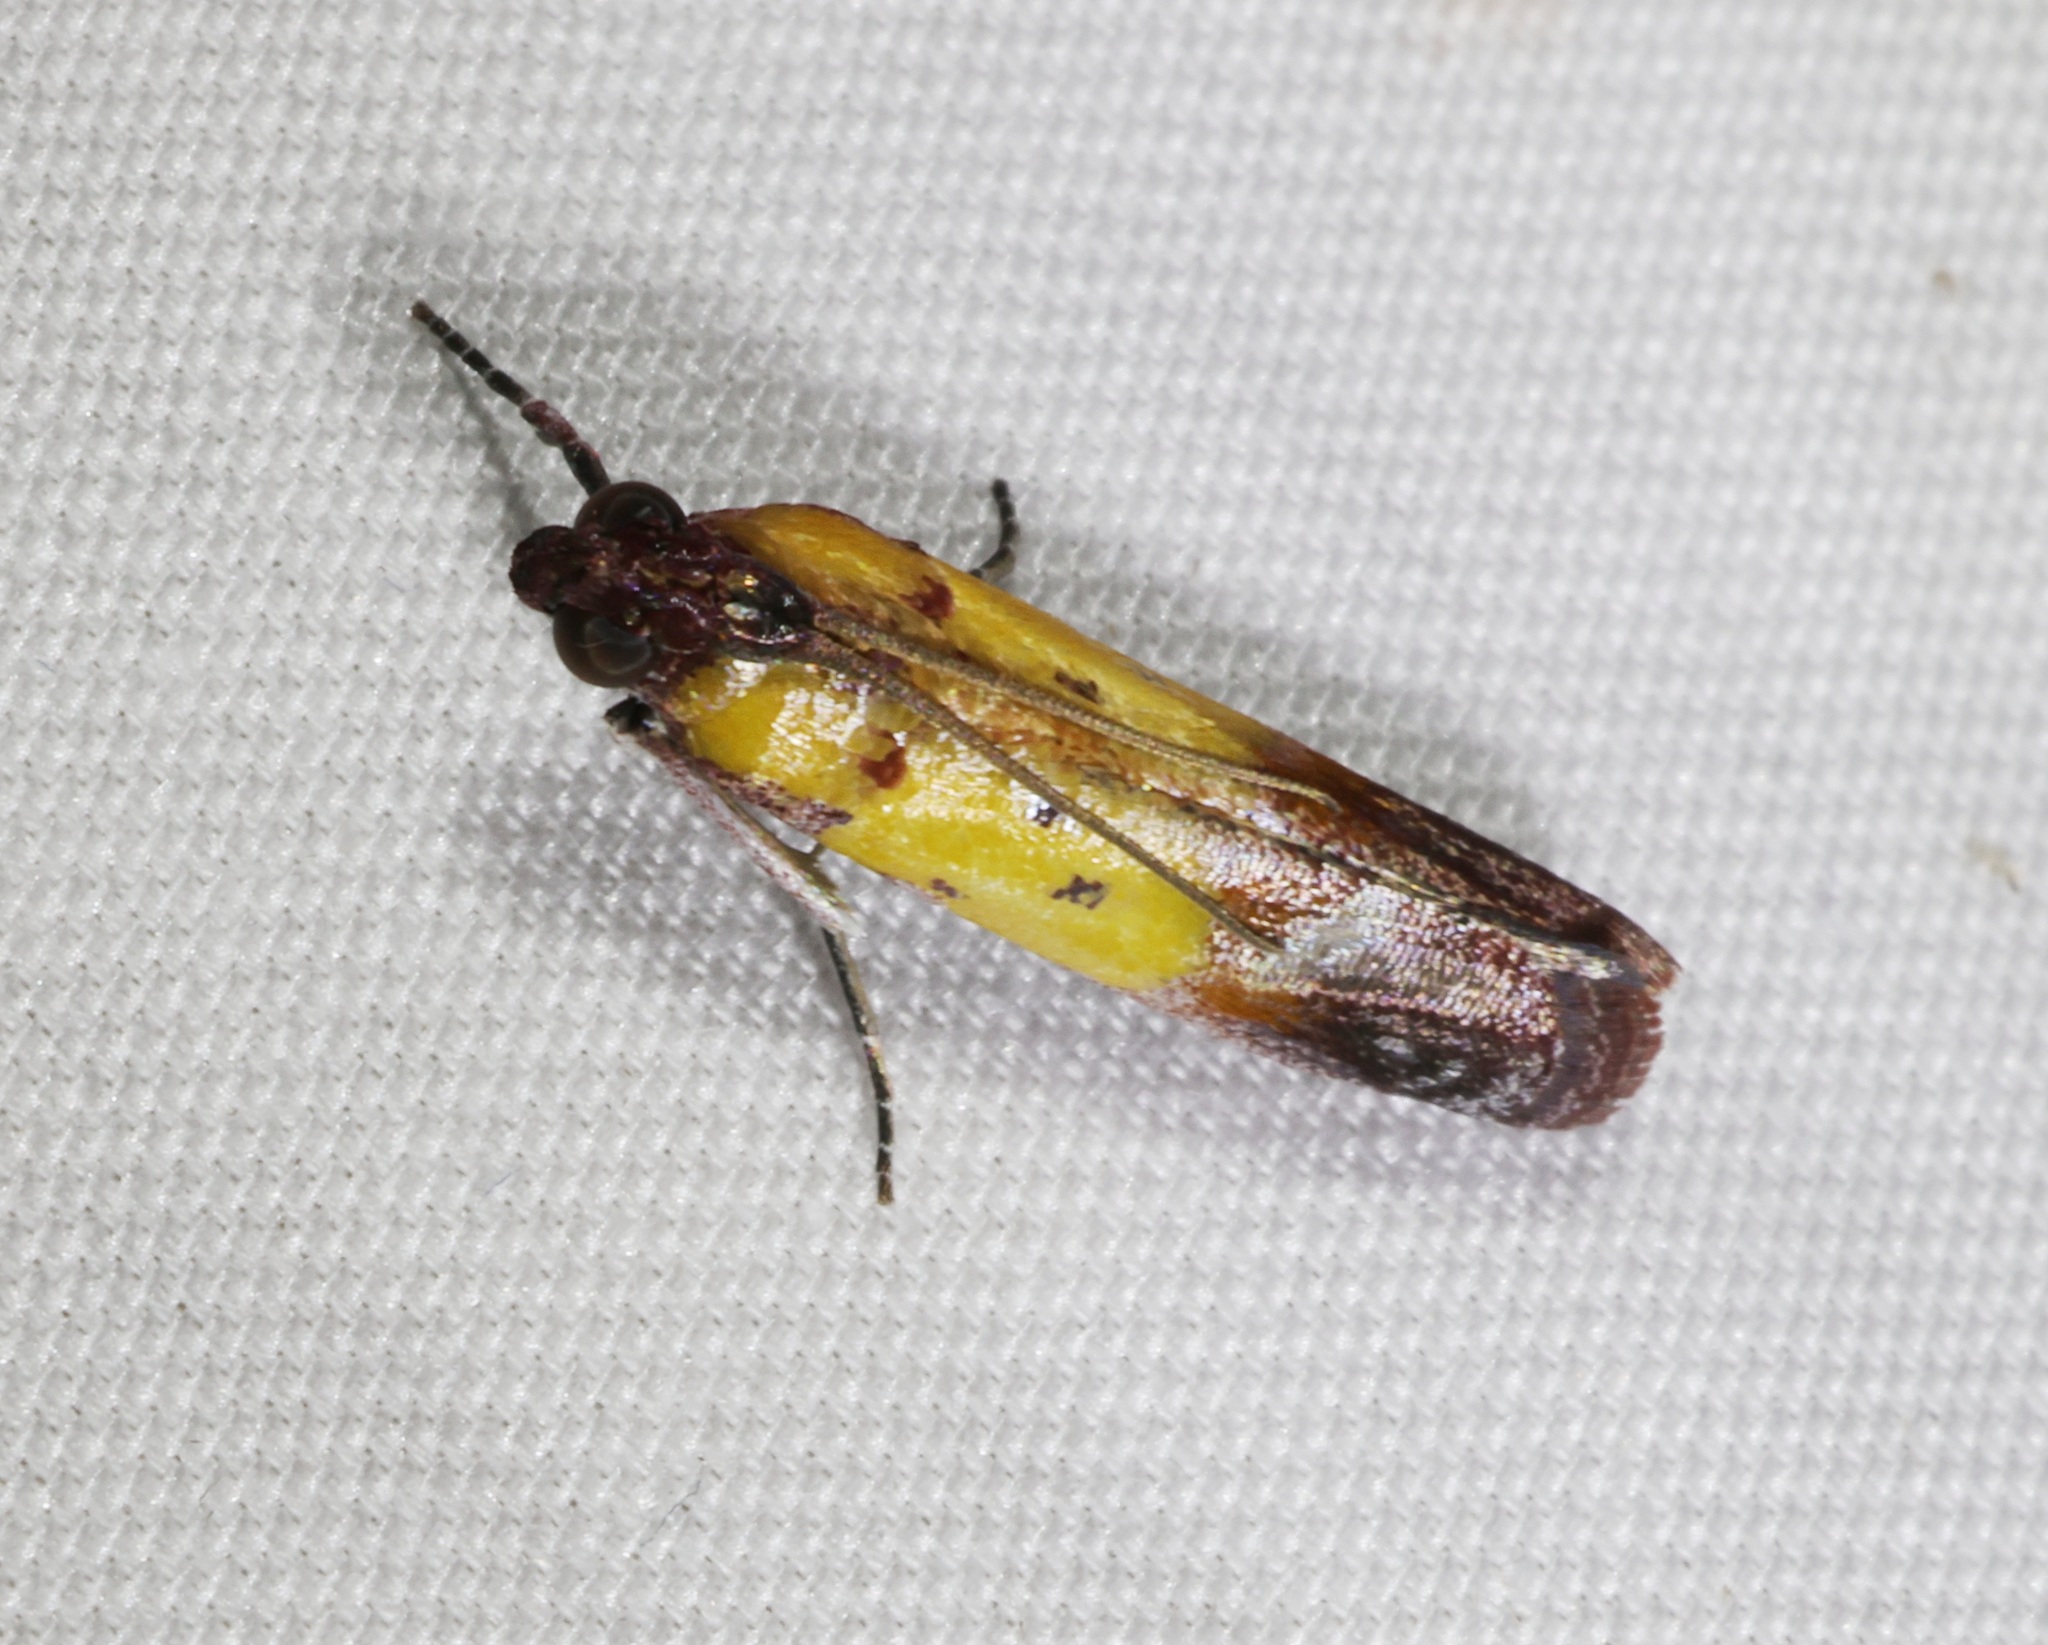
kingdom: Animalia
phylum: Arthropoda
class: Insecta
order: Lepidoptera
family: Pyralidae
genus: Piesmopoda
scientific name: Piesmopoda
